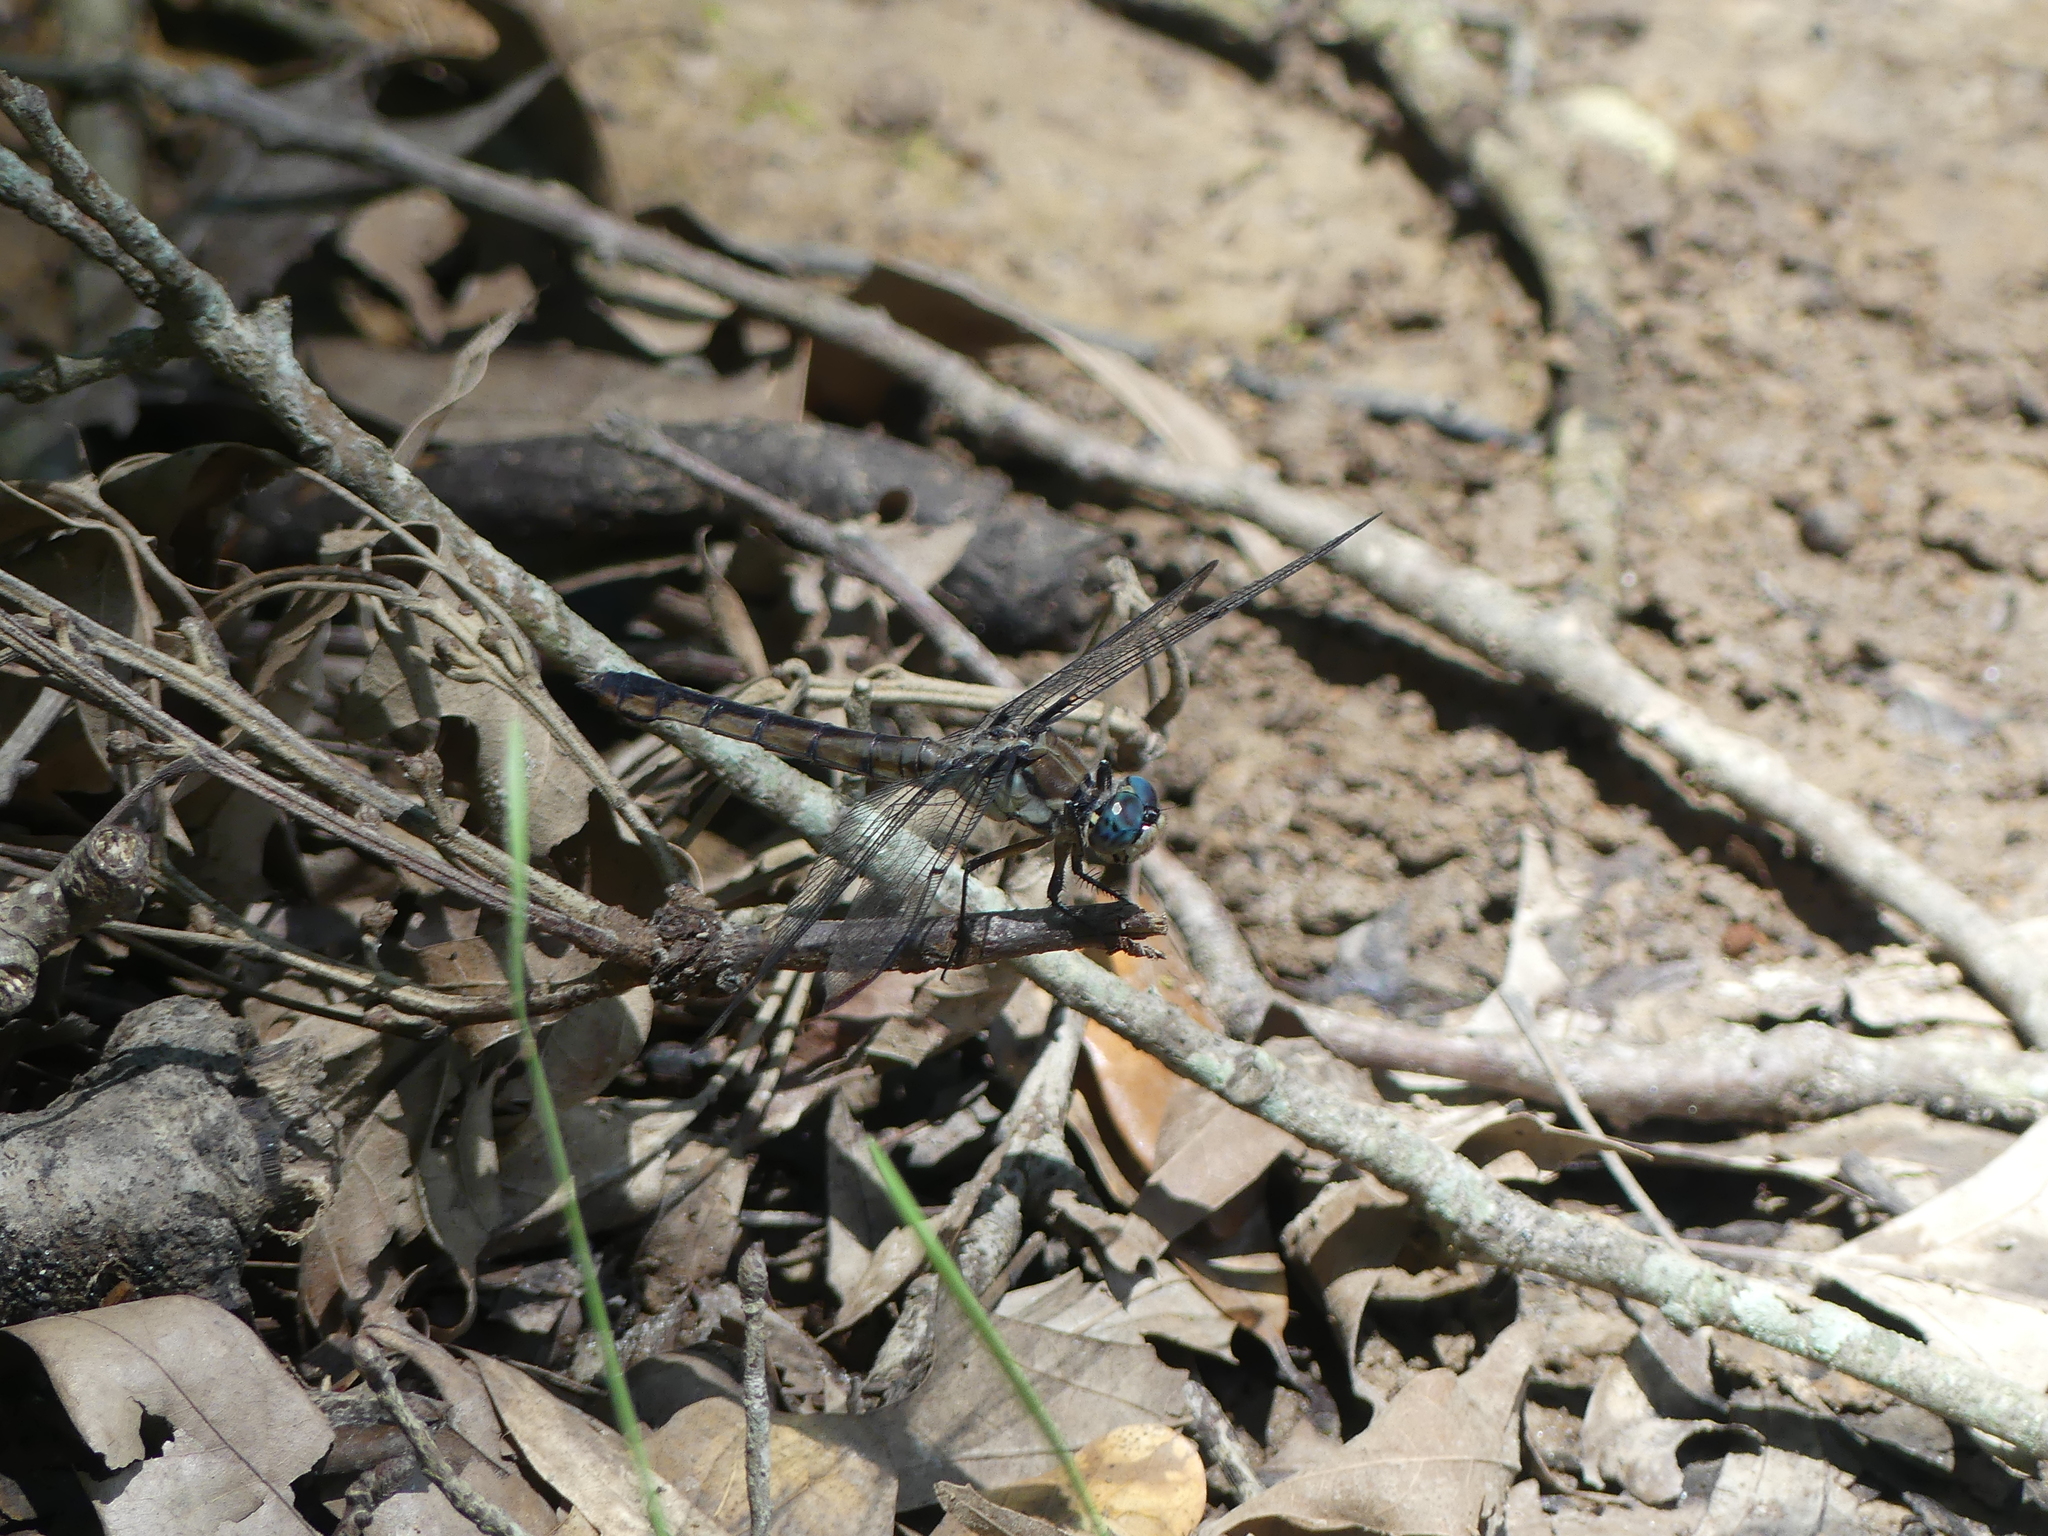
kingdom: Animalia
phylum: Arthropoda
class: Insecta
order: Odonata
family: Libellulidae
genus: Libellula
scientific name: Libellula vibrans
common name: Great blue skimmer
